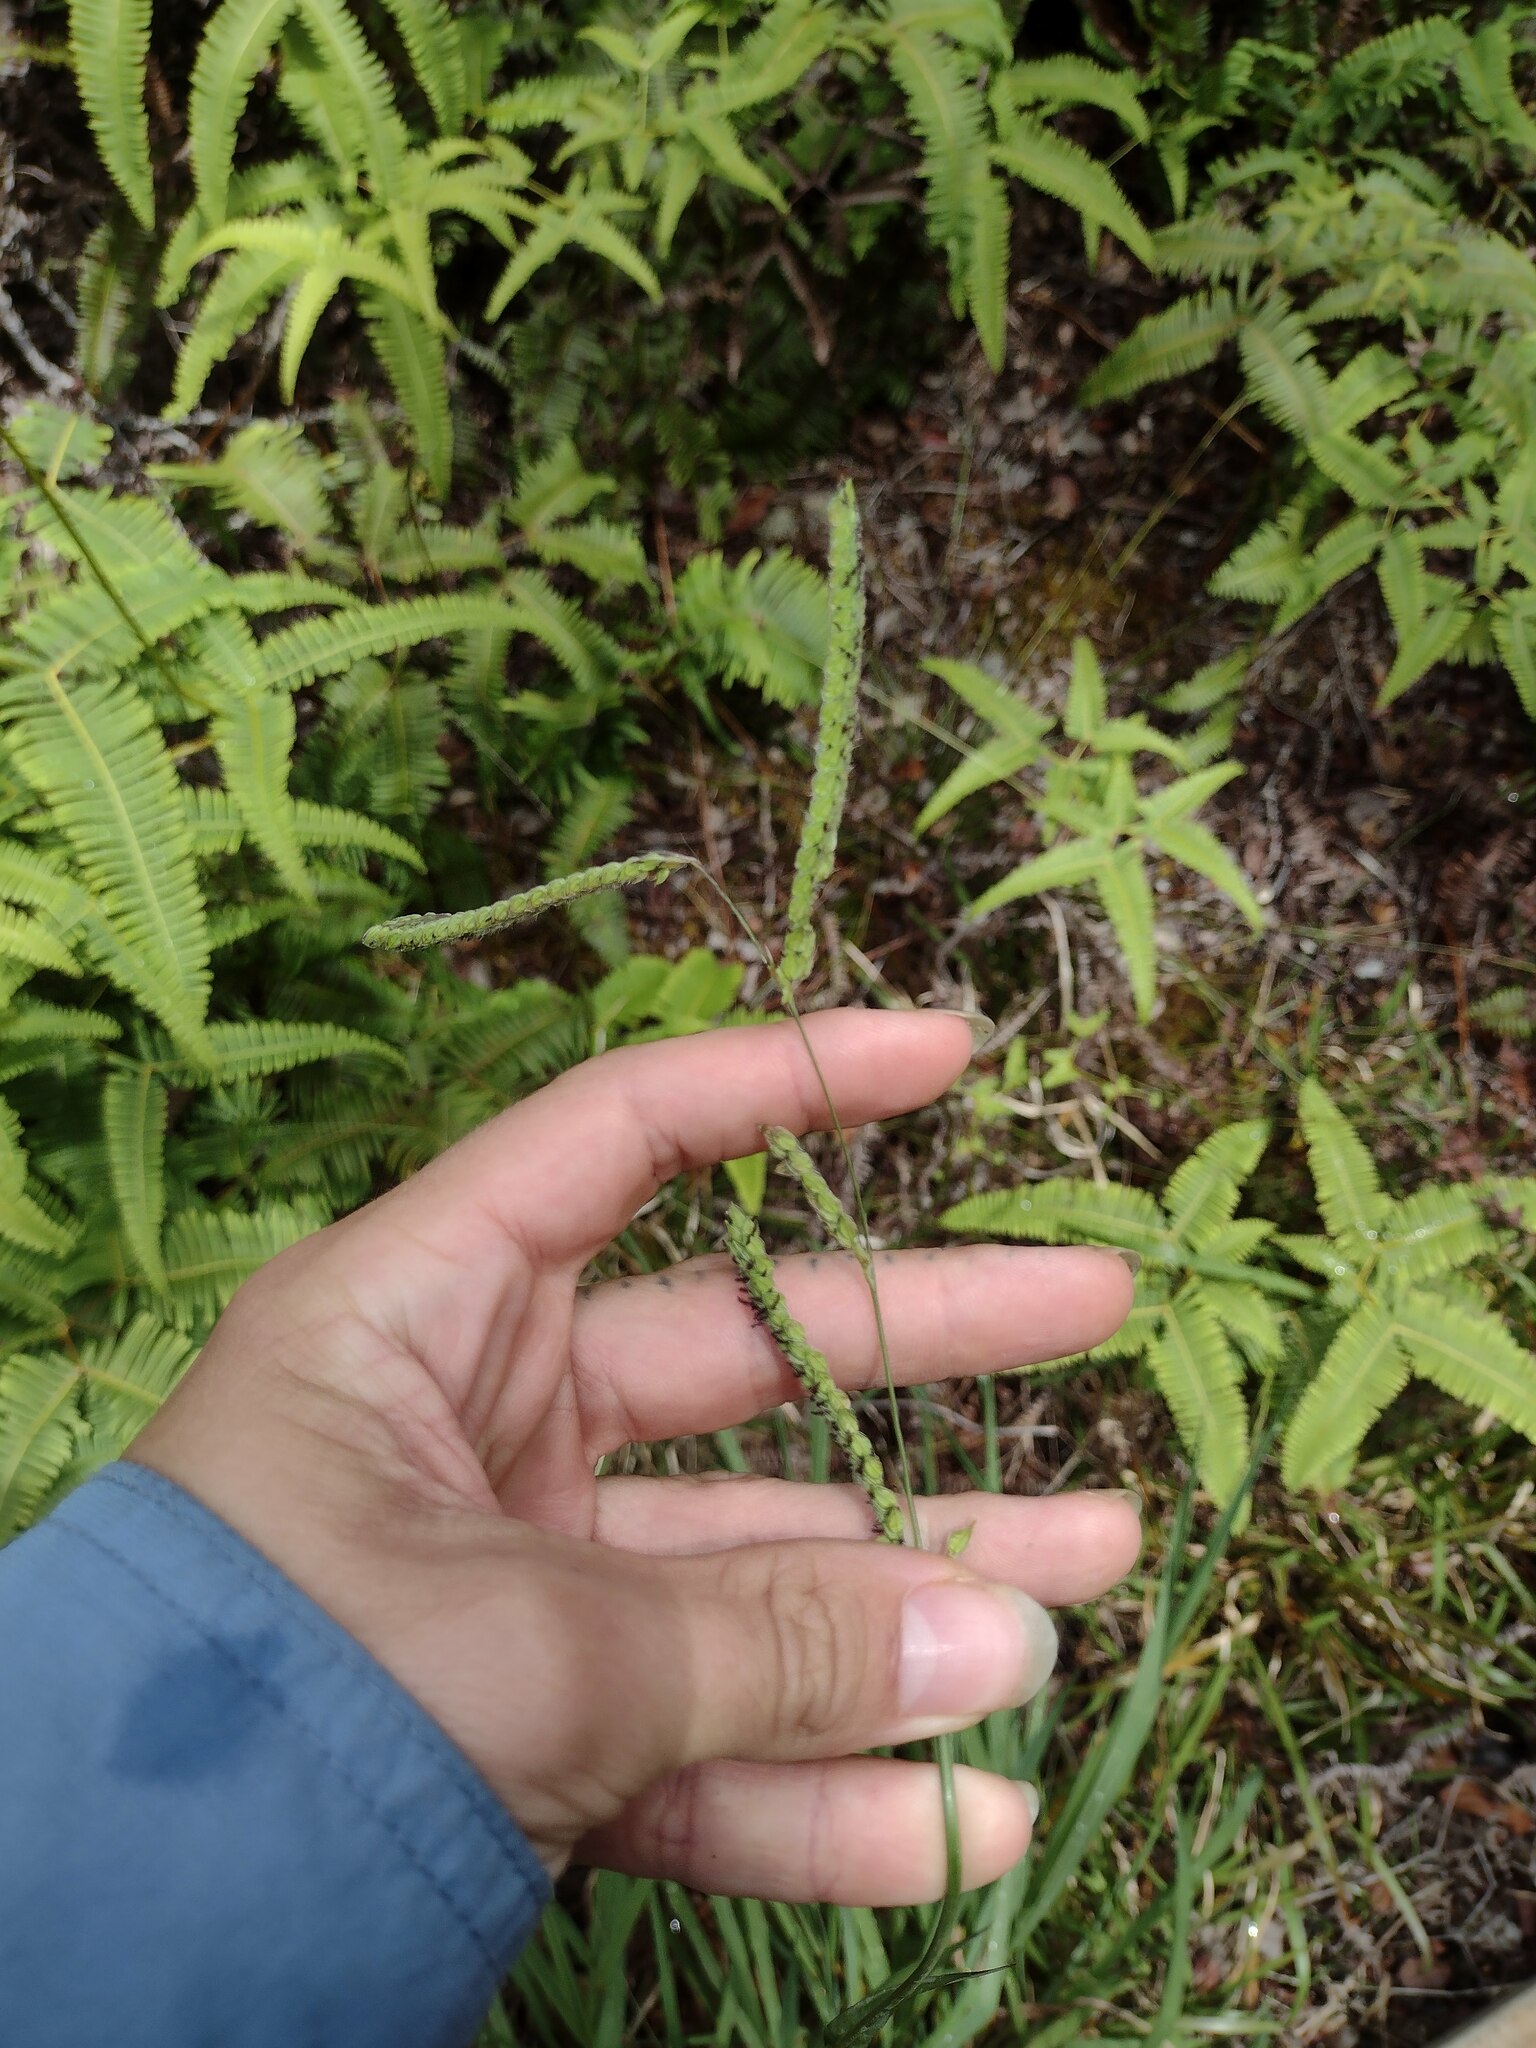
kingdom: Plantae
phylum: Tracheophyta
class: Liliopsida
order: Poales
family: Poaceae
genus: Paspalum
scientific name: Paspalum dilatatum
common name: Dallisgrass
